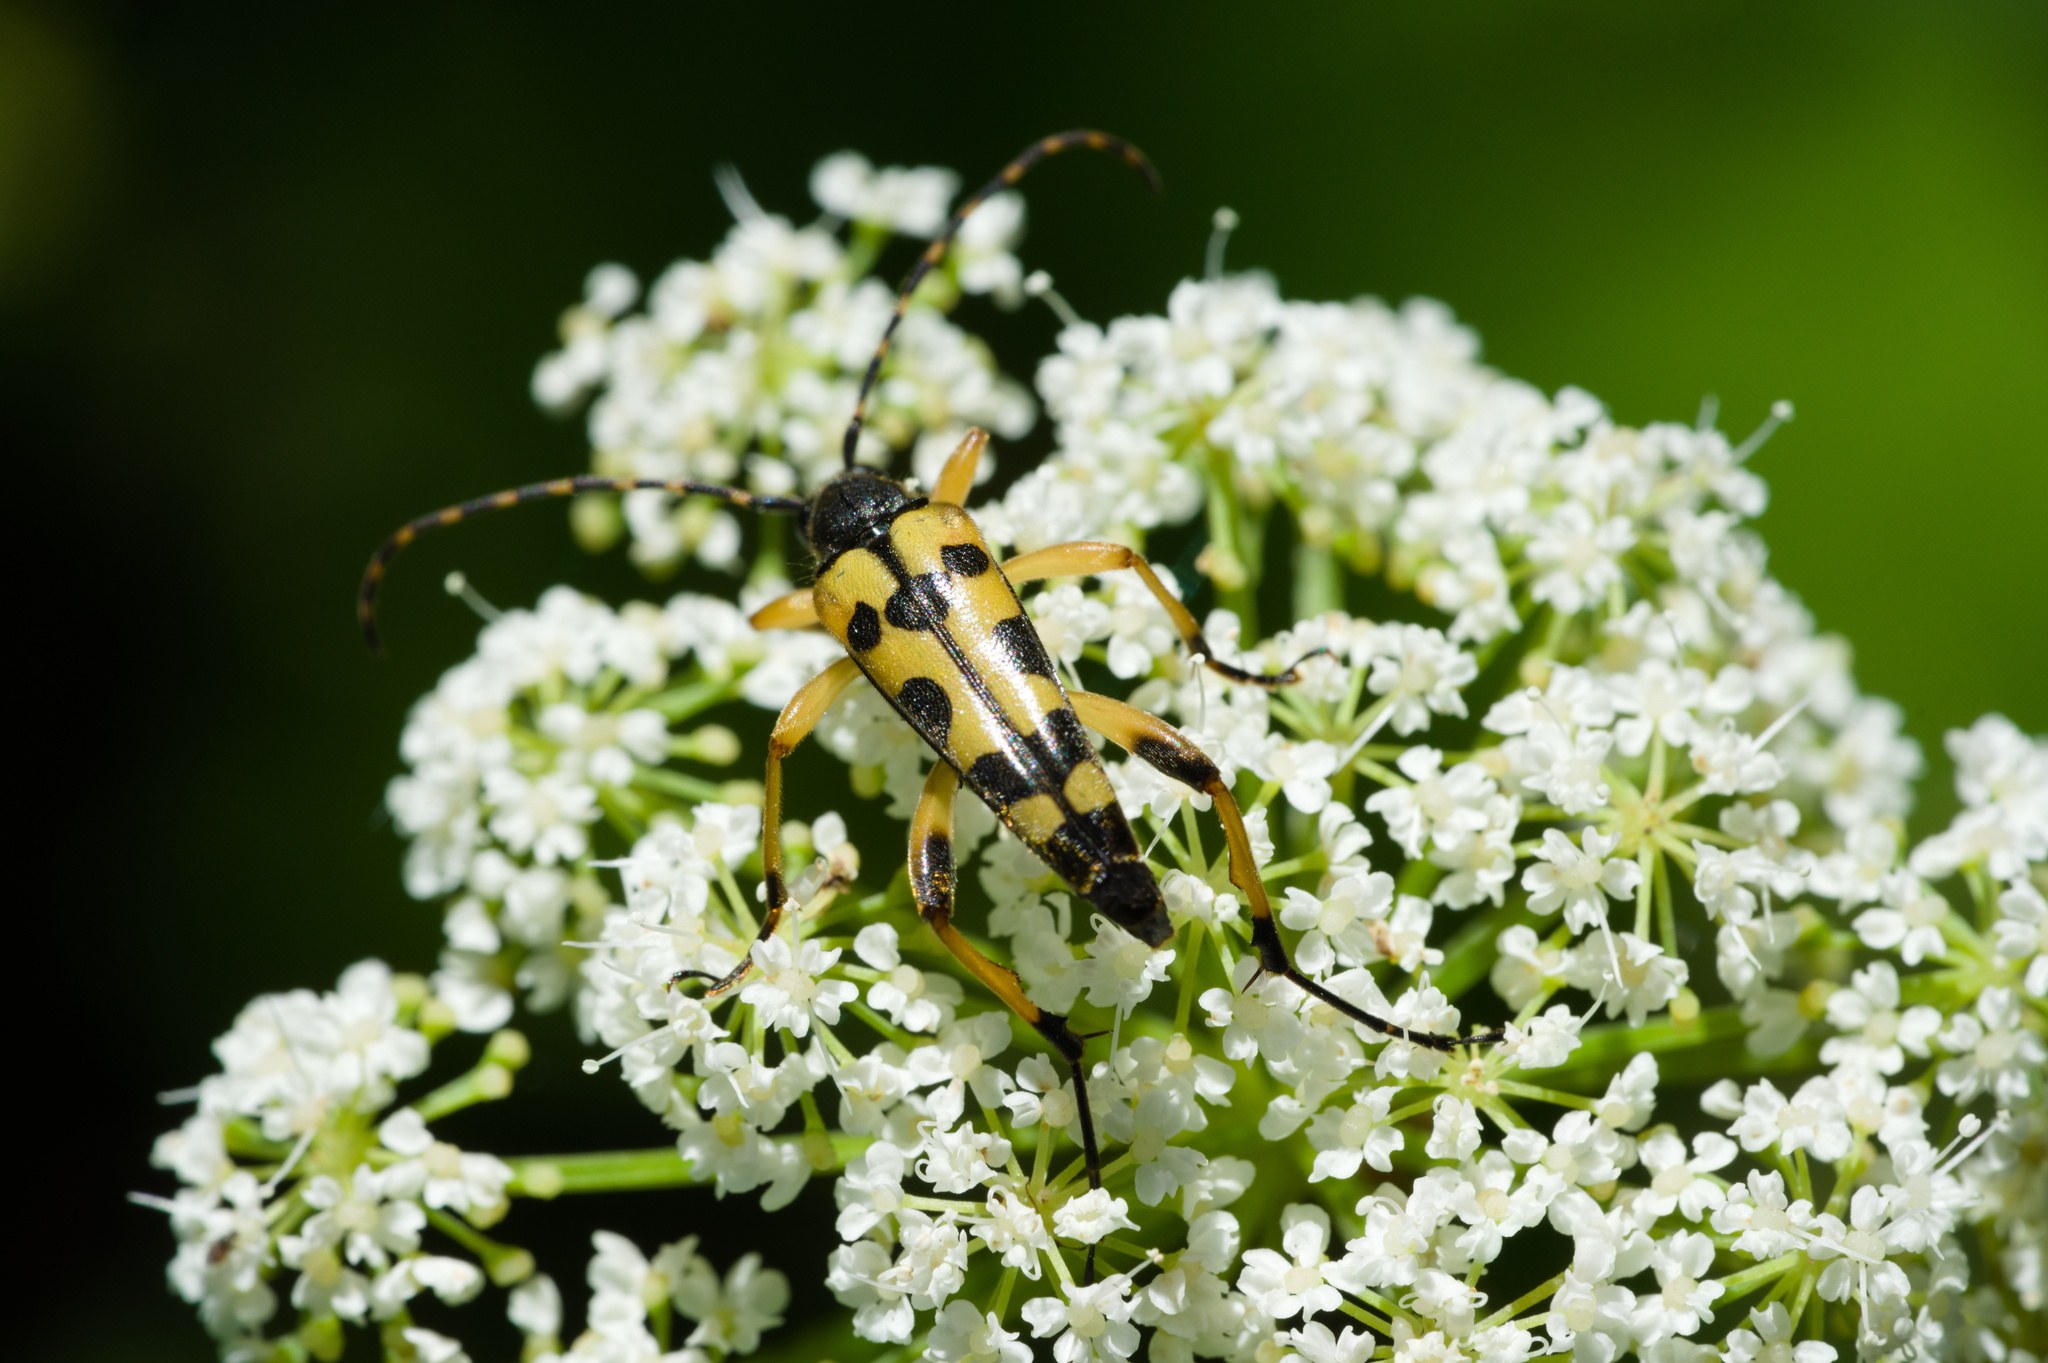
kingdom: Animalia
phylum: Arthropoda
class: Insecta
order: Coleoptera
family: Cerambycidae
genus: Rutpela
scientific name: Rutpela maculata
